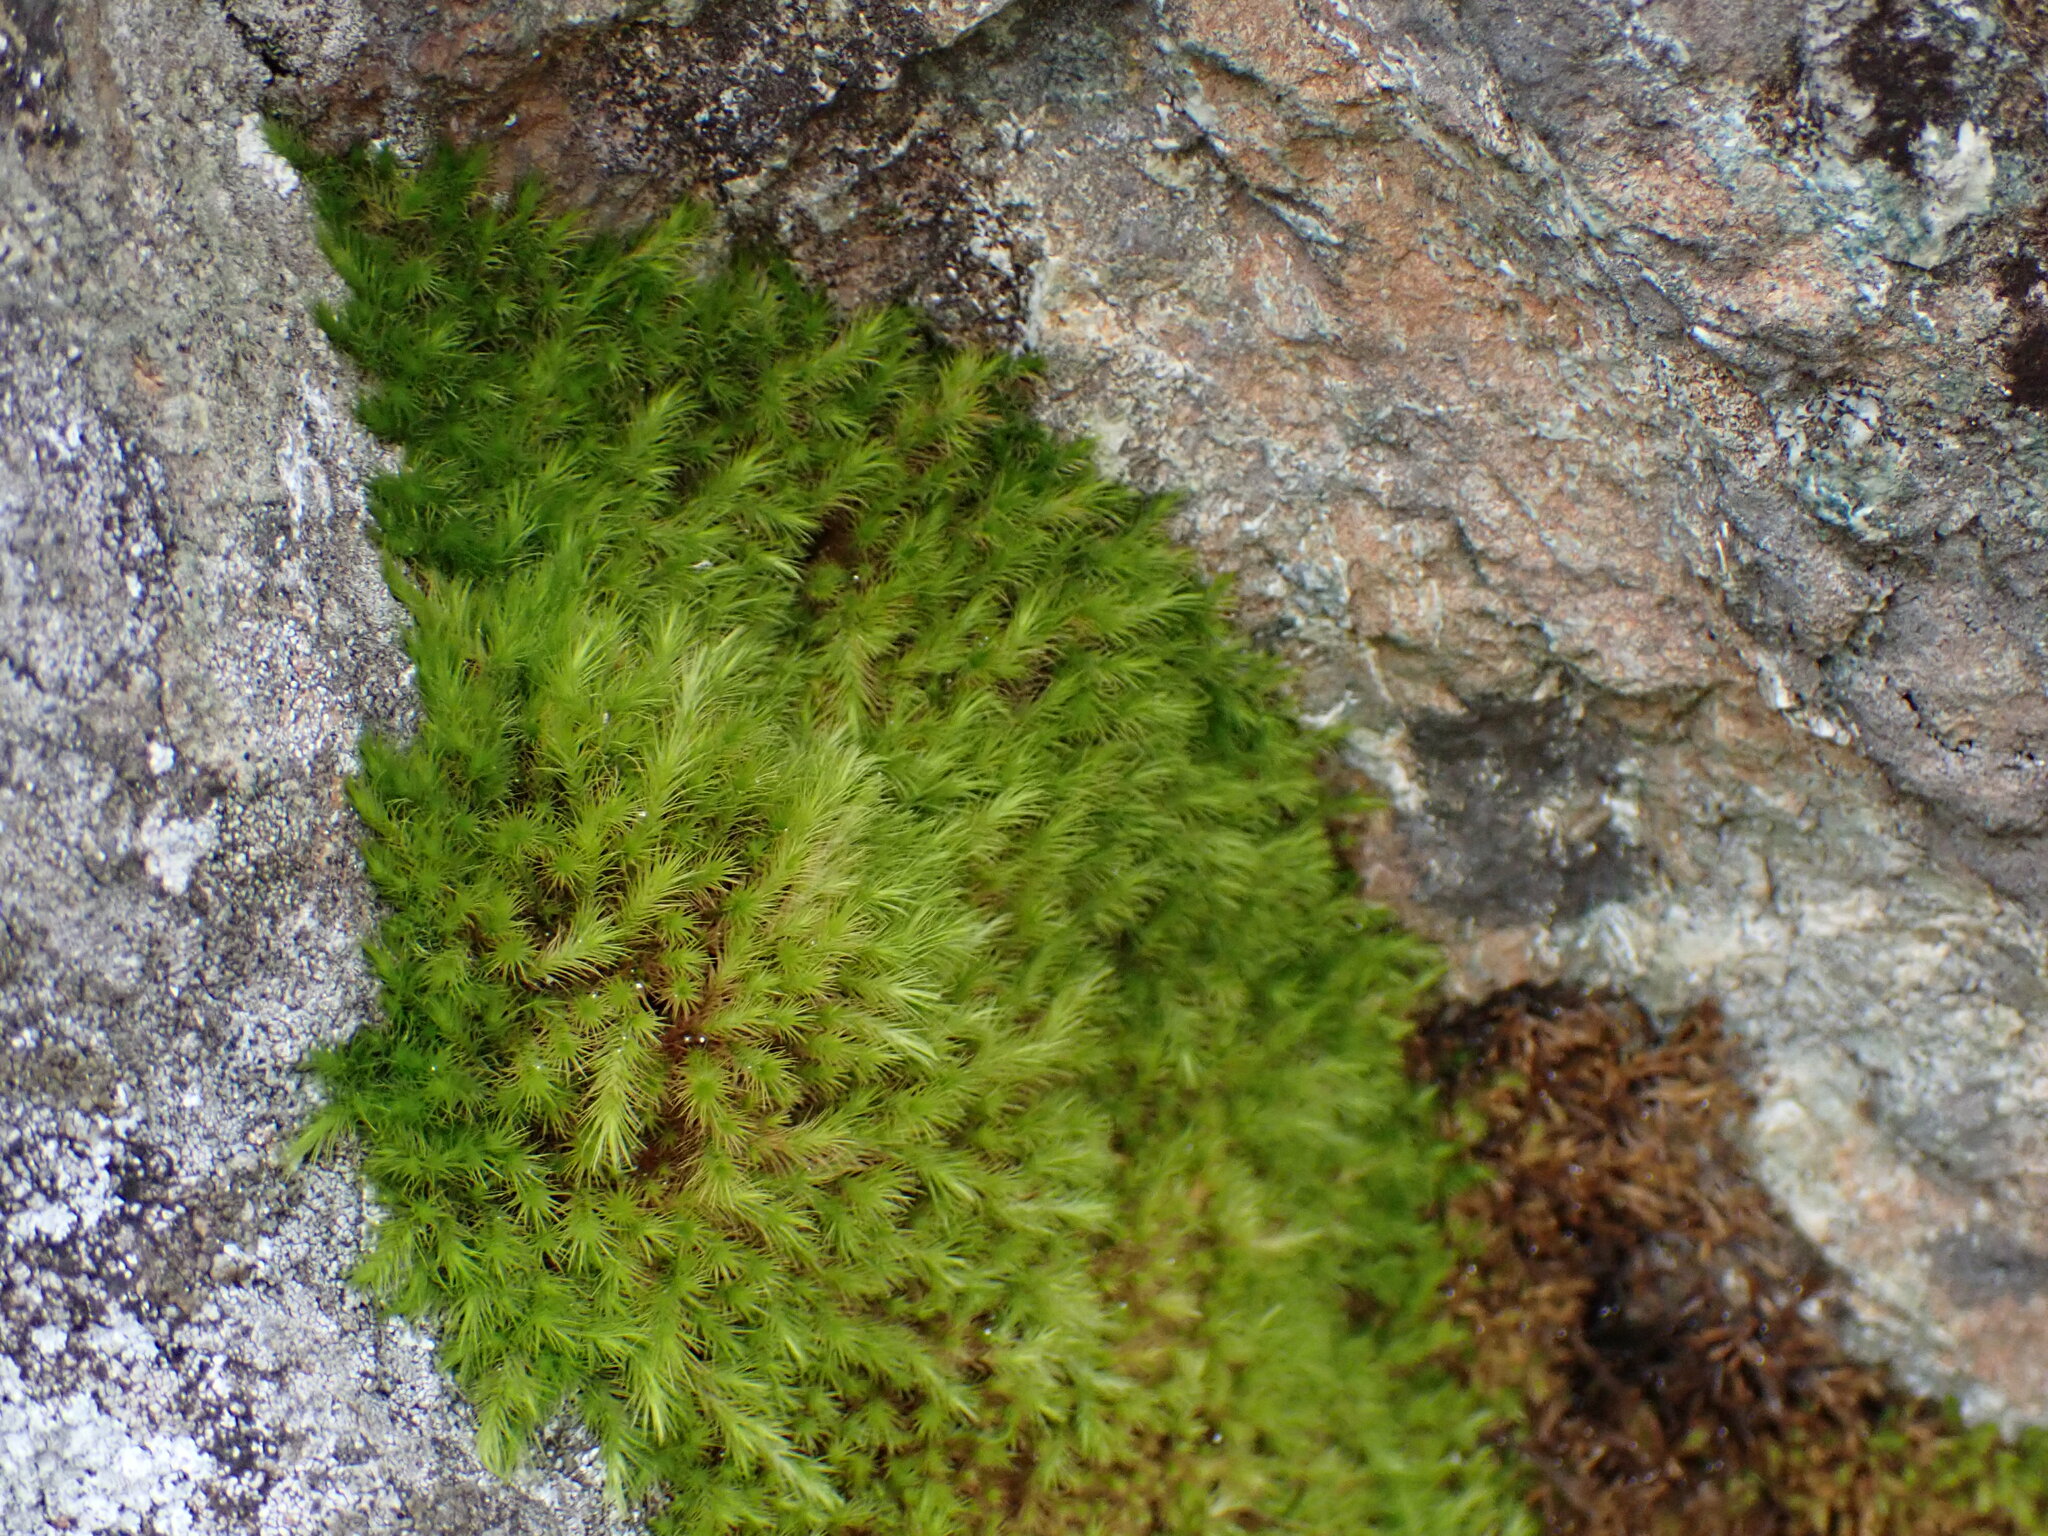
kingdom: Plantae
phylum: Bryophyta
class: Bryopsida
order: Bartramiales
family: Bartramiaceae
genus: Anacolia
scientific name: Anacolia menziesii
